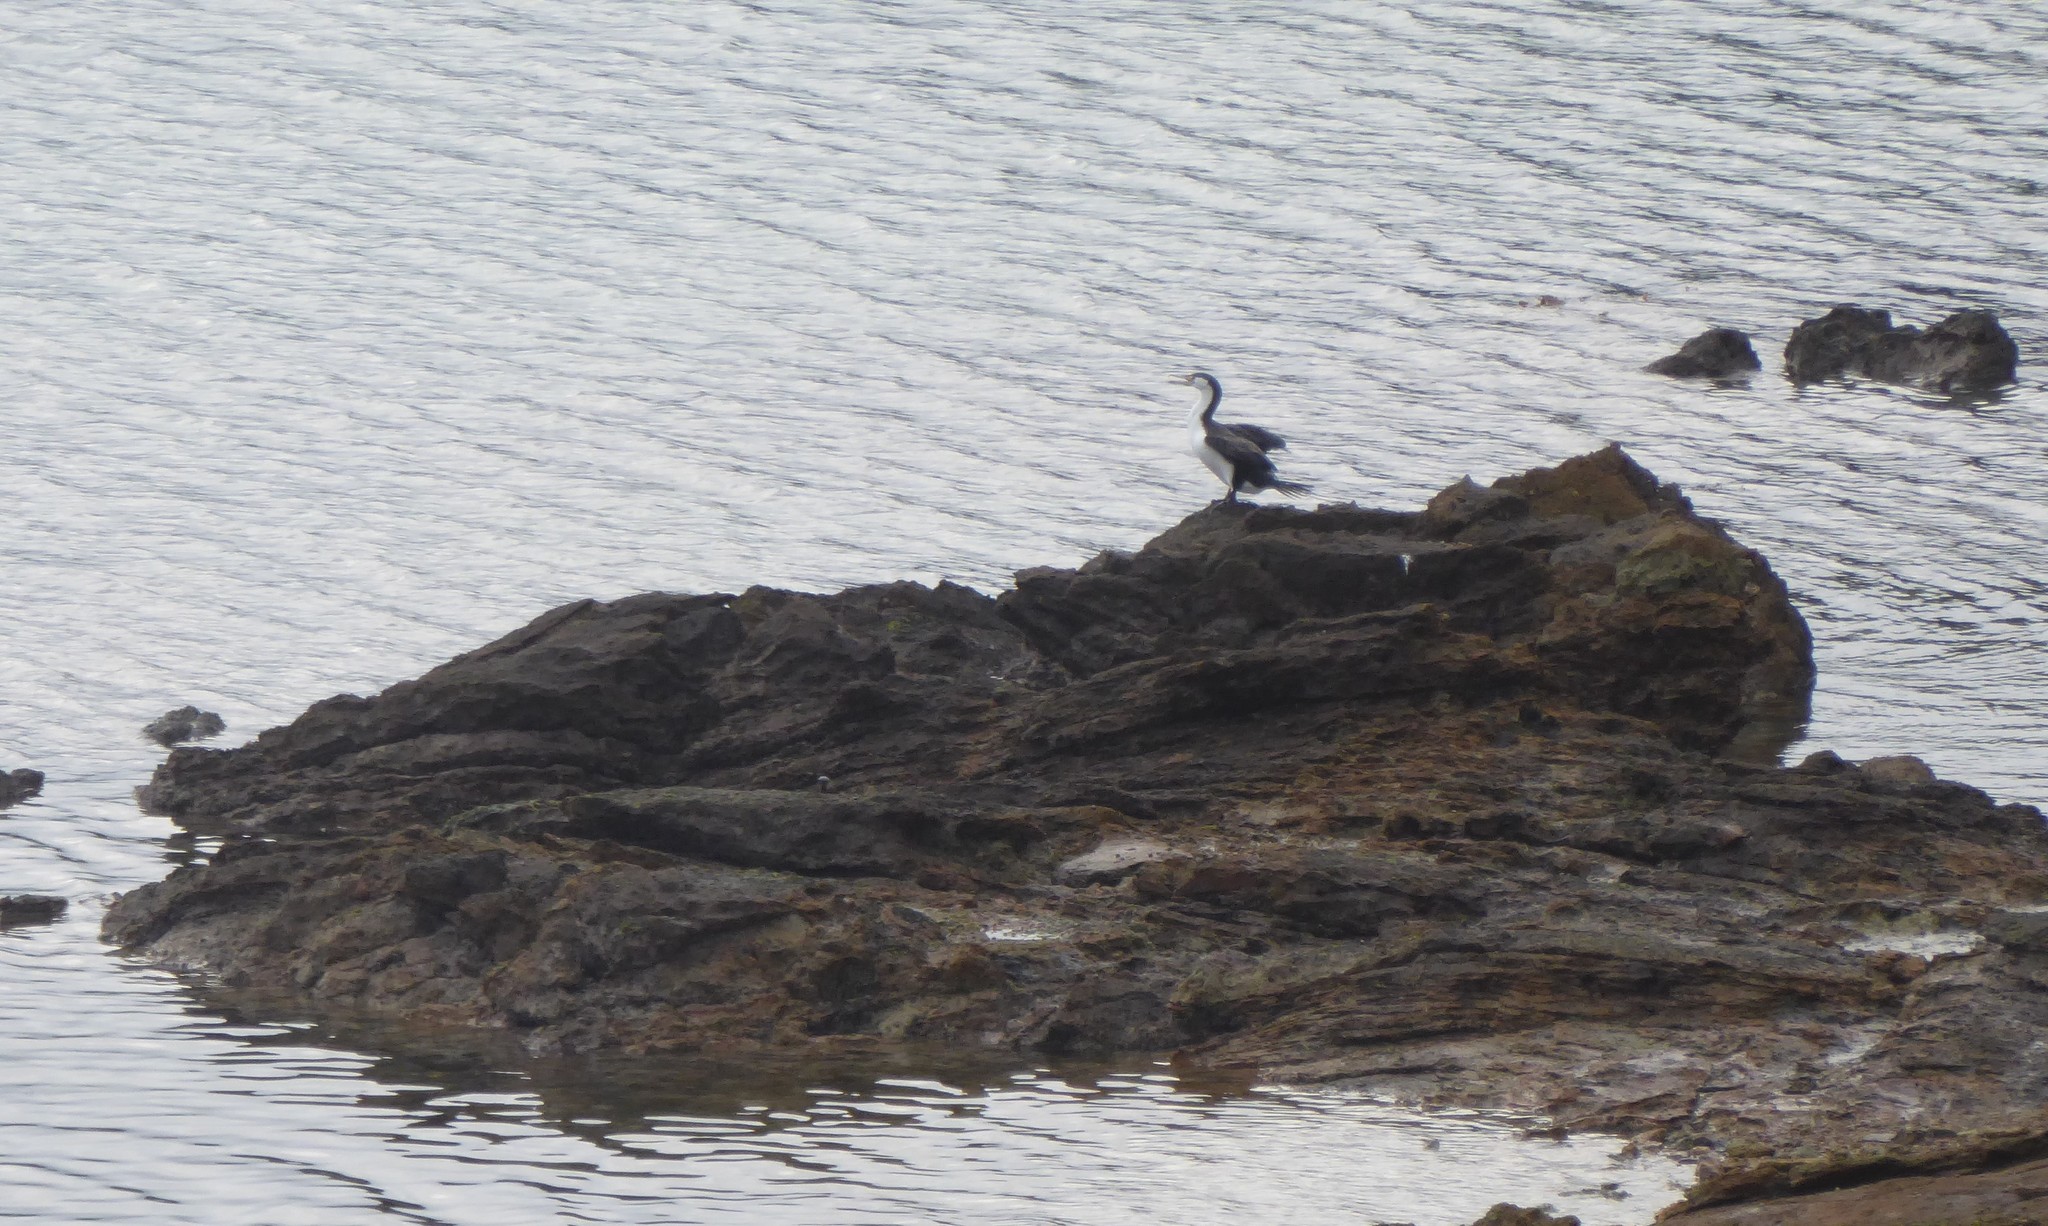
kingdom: Animalia
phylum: Chordata
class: Aves
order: Suliformes
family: Phalacrocoracidae
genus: Phalacrocorax
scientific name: Phalacrocorax varius
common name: Pied cormorant
